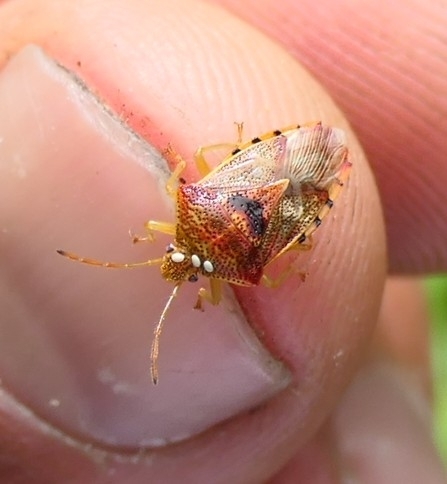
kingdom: Animalia
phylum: Arthropoda
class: Insecta
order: Hemiptera
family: Acanthosomatidae
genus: Elasmucha
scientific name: Elasmucha grisea
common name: Parent bug
